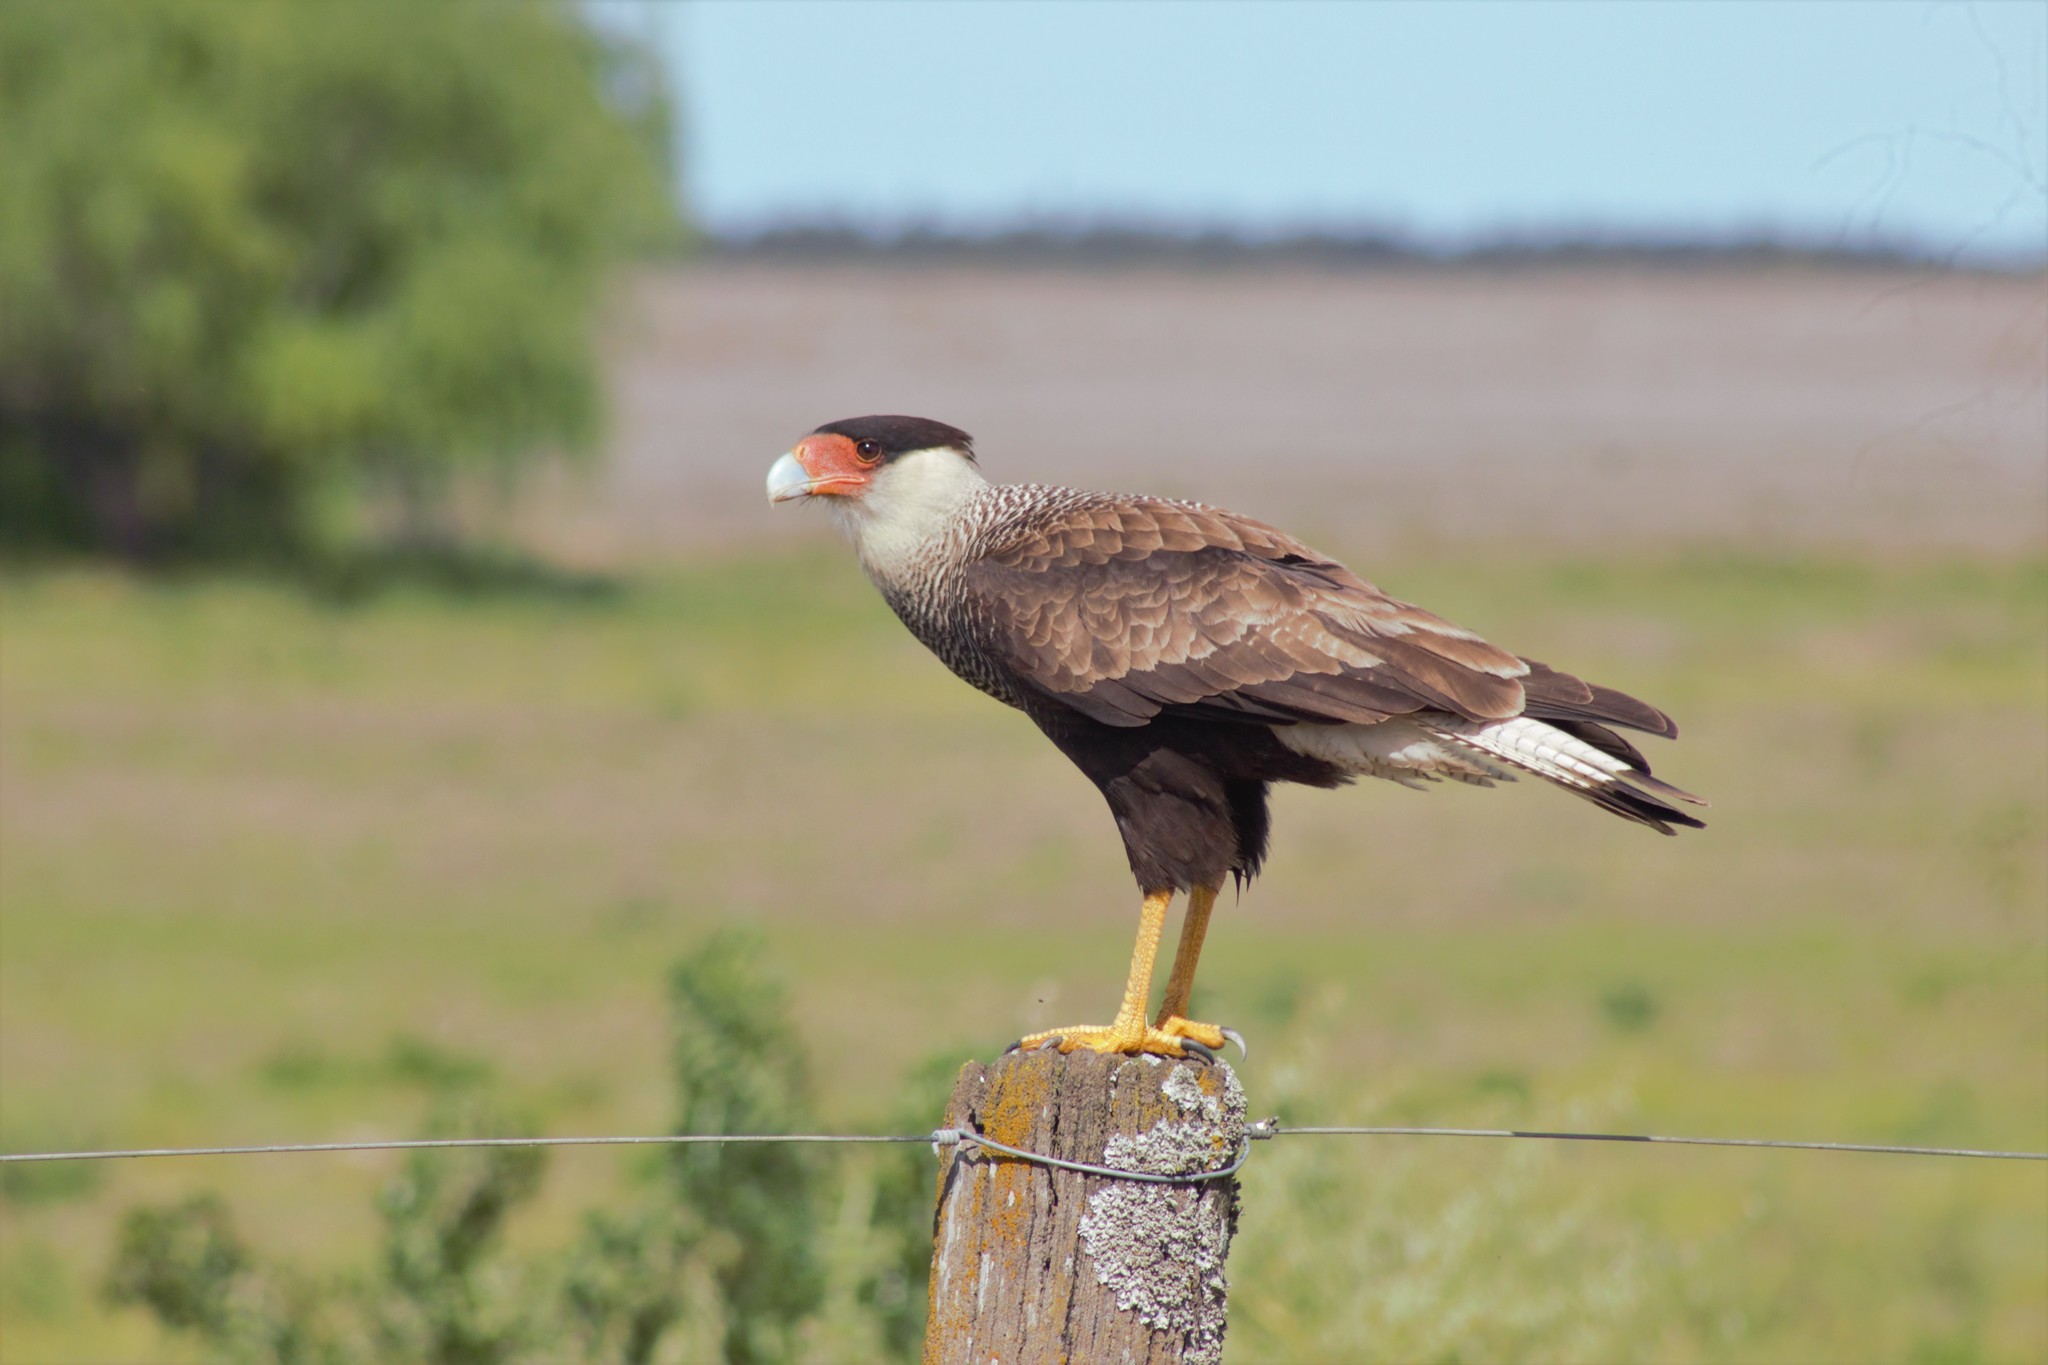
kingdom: Animalia
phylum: Chordata
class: Aves
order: Falconiformes
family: Falconidae
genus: Caracara
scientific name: Caracara plancus
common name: Southern caracara
